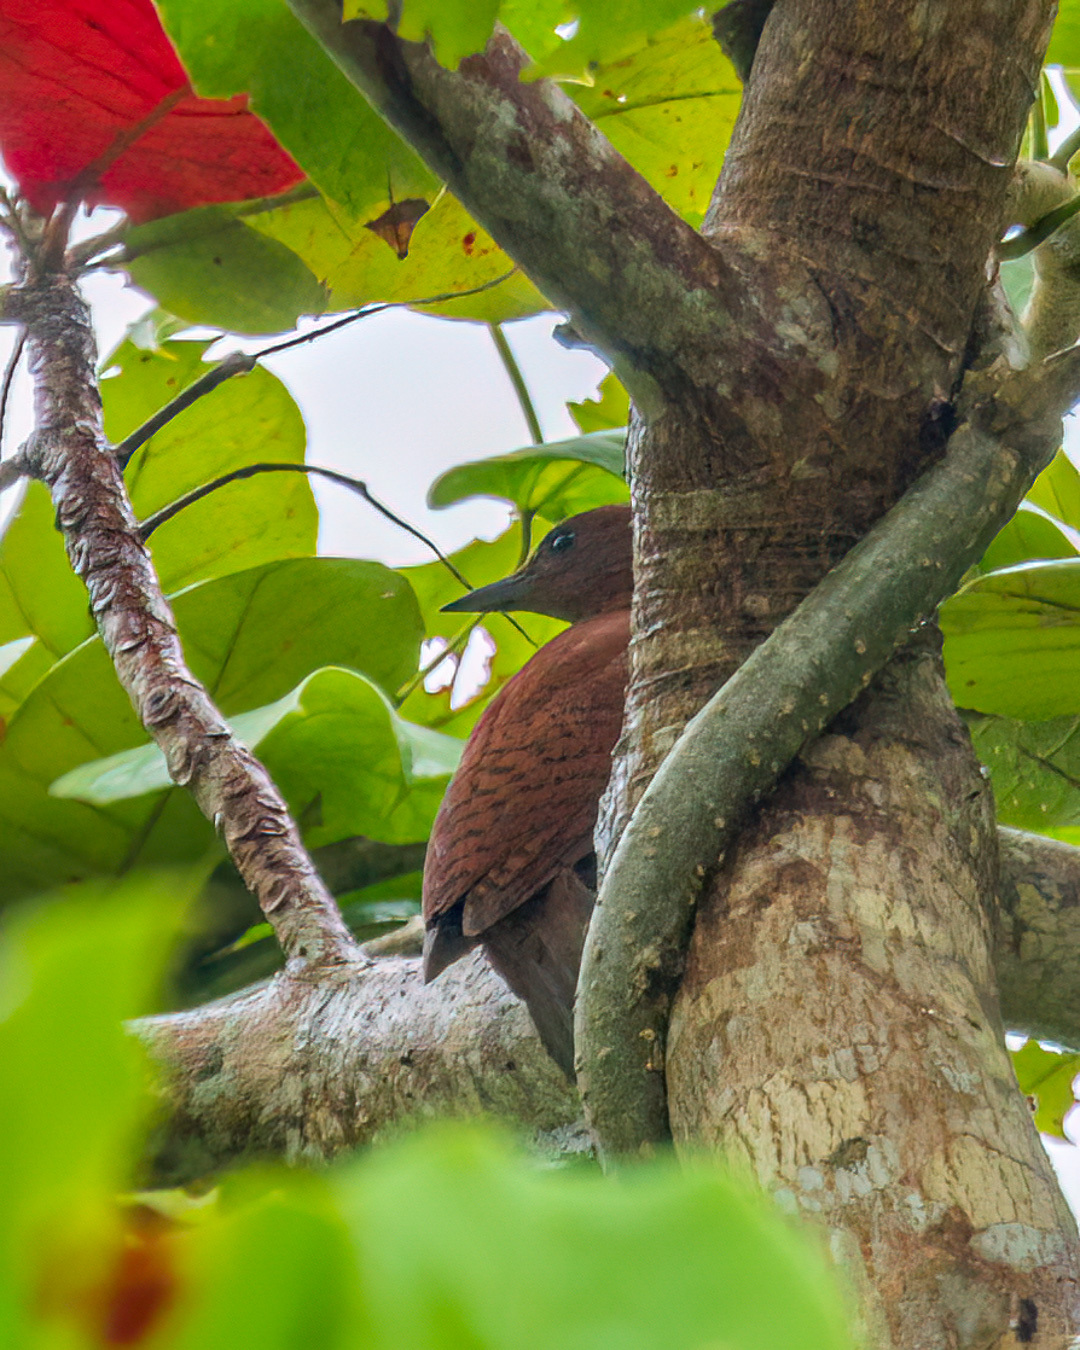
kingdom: Animalia
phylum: Chordata
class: Aves
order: Piciformes
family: Picidae
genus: Micropternus
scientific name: Micropternus brachyurus
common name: Rufous woodpecker
